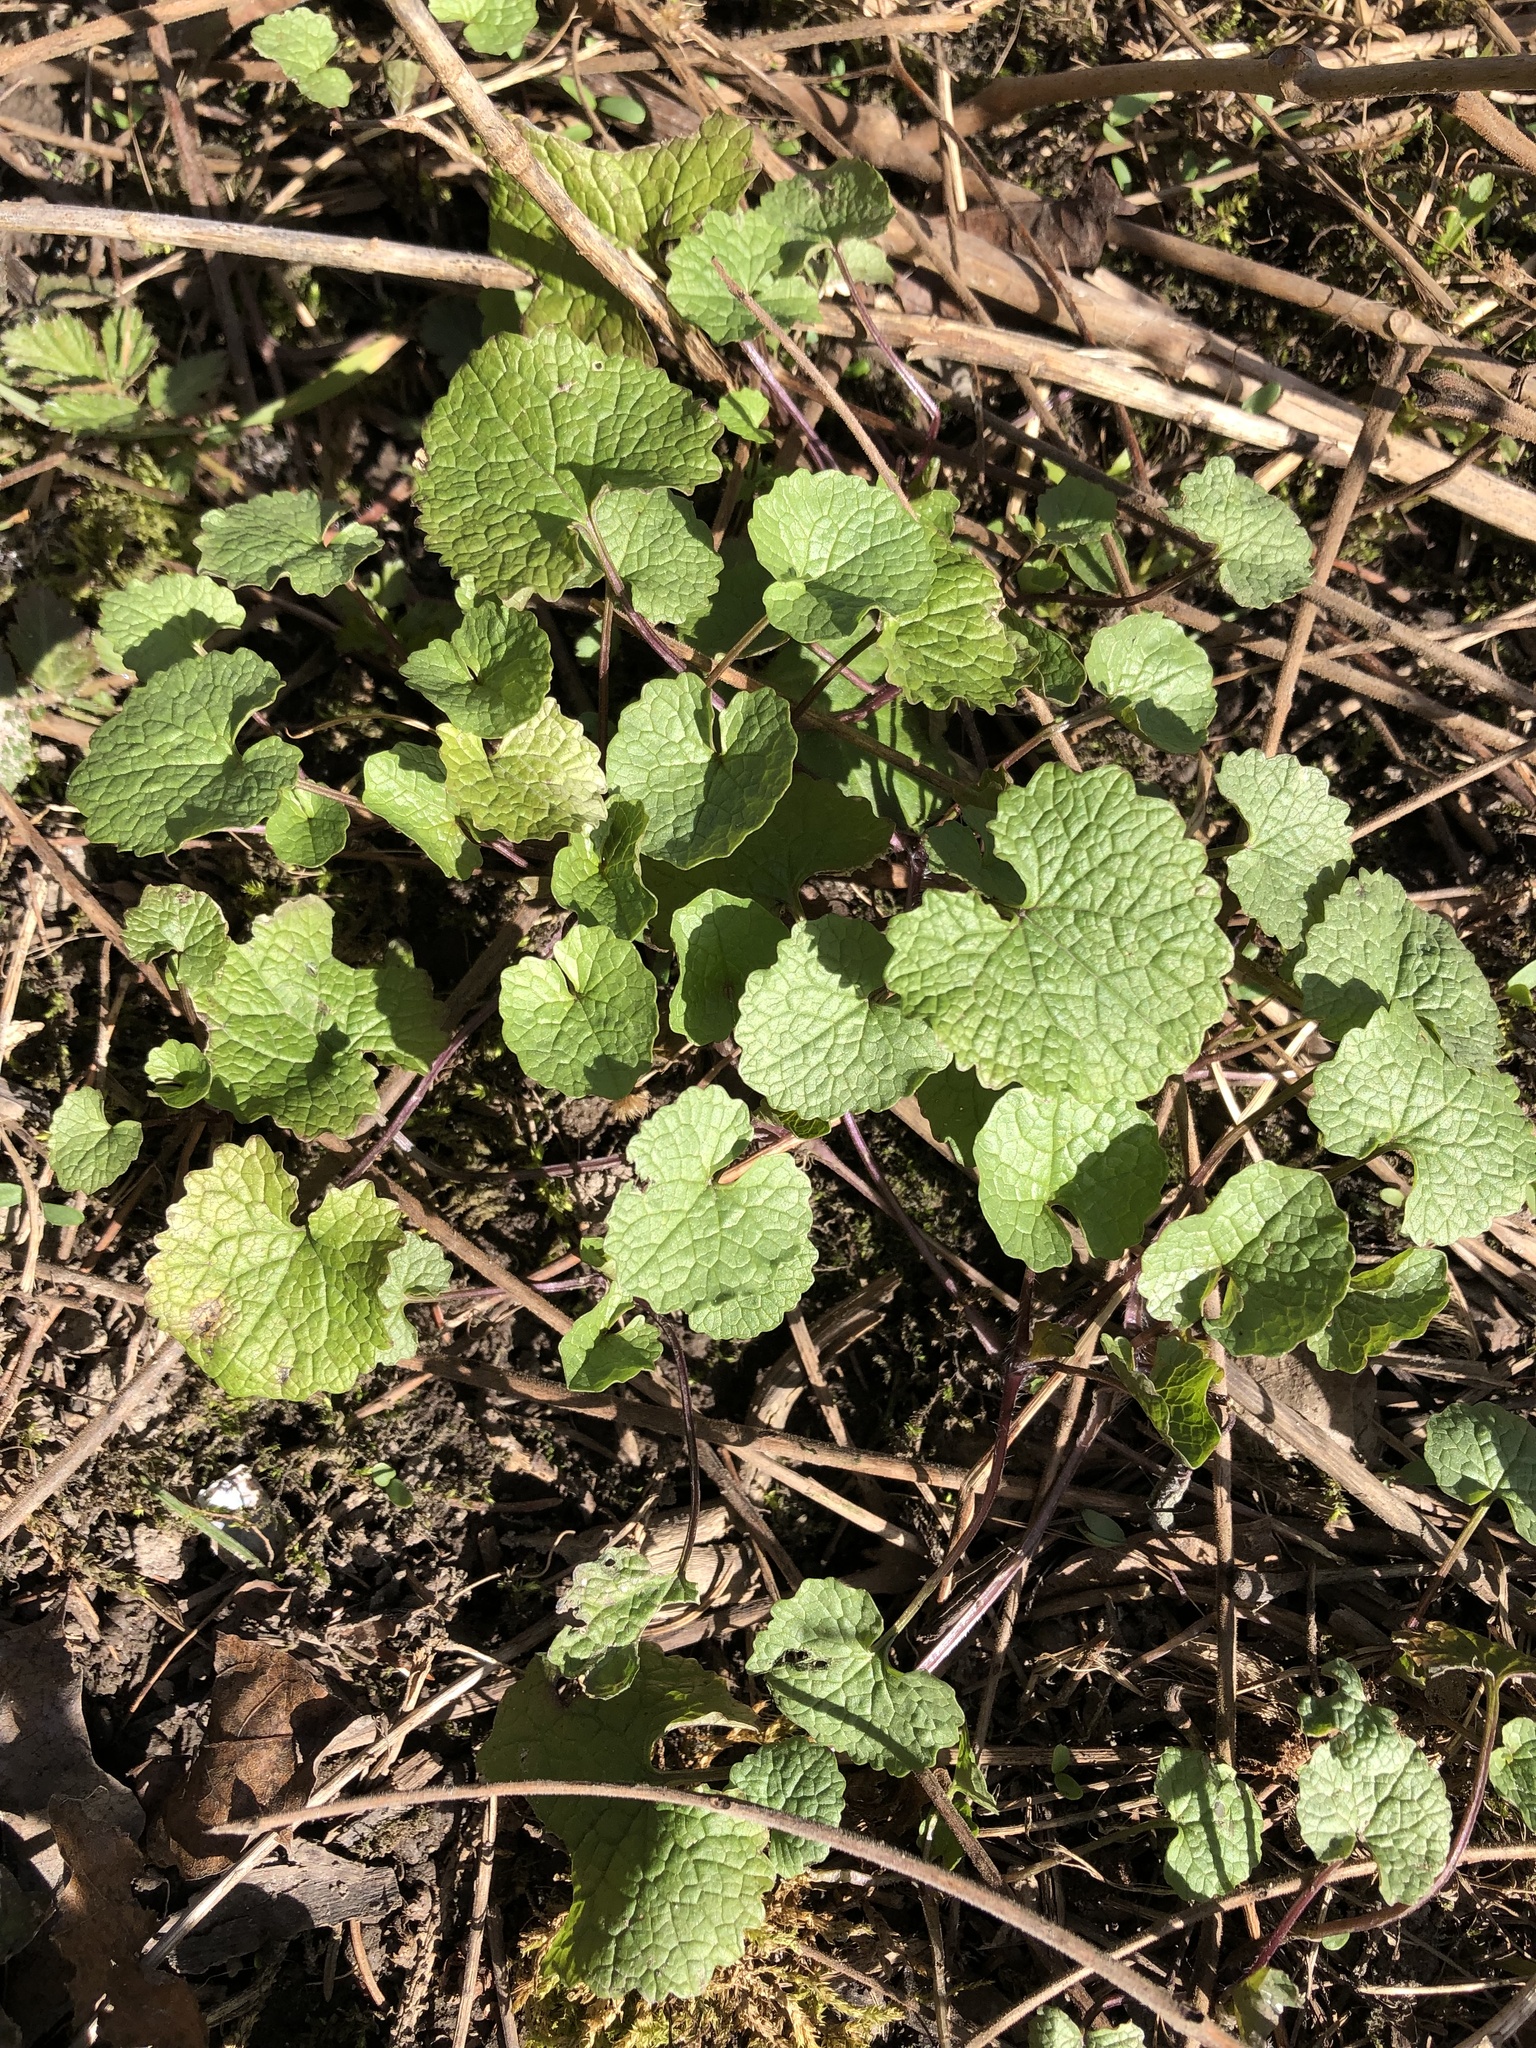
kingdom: Plantae
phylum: Tracheophyta
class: Magnoliopsida
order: Brassicales
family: Brassicaceae
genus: Alliaria
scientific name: Alliaria petiolata
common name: Garlic mustard
